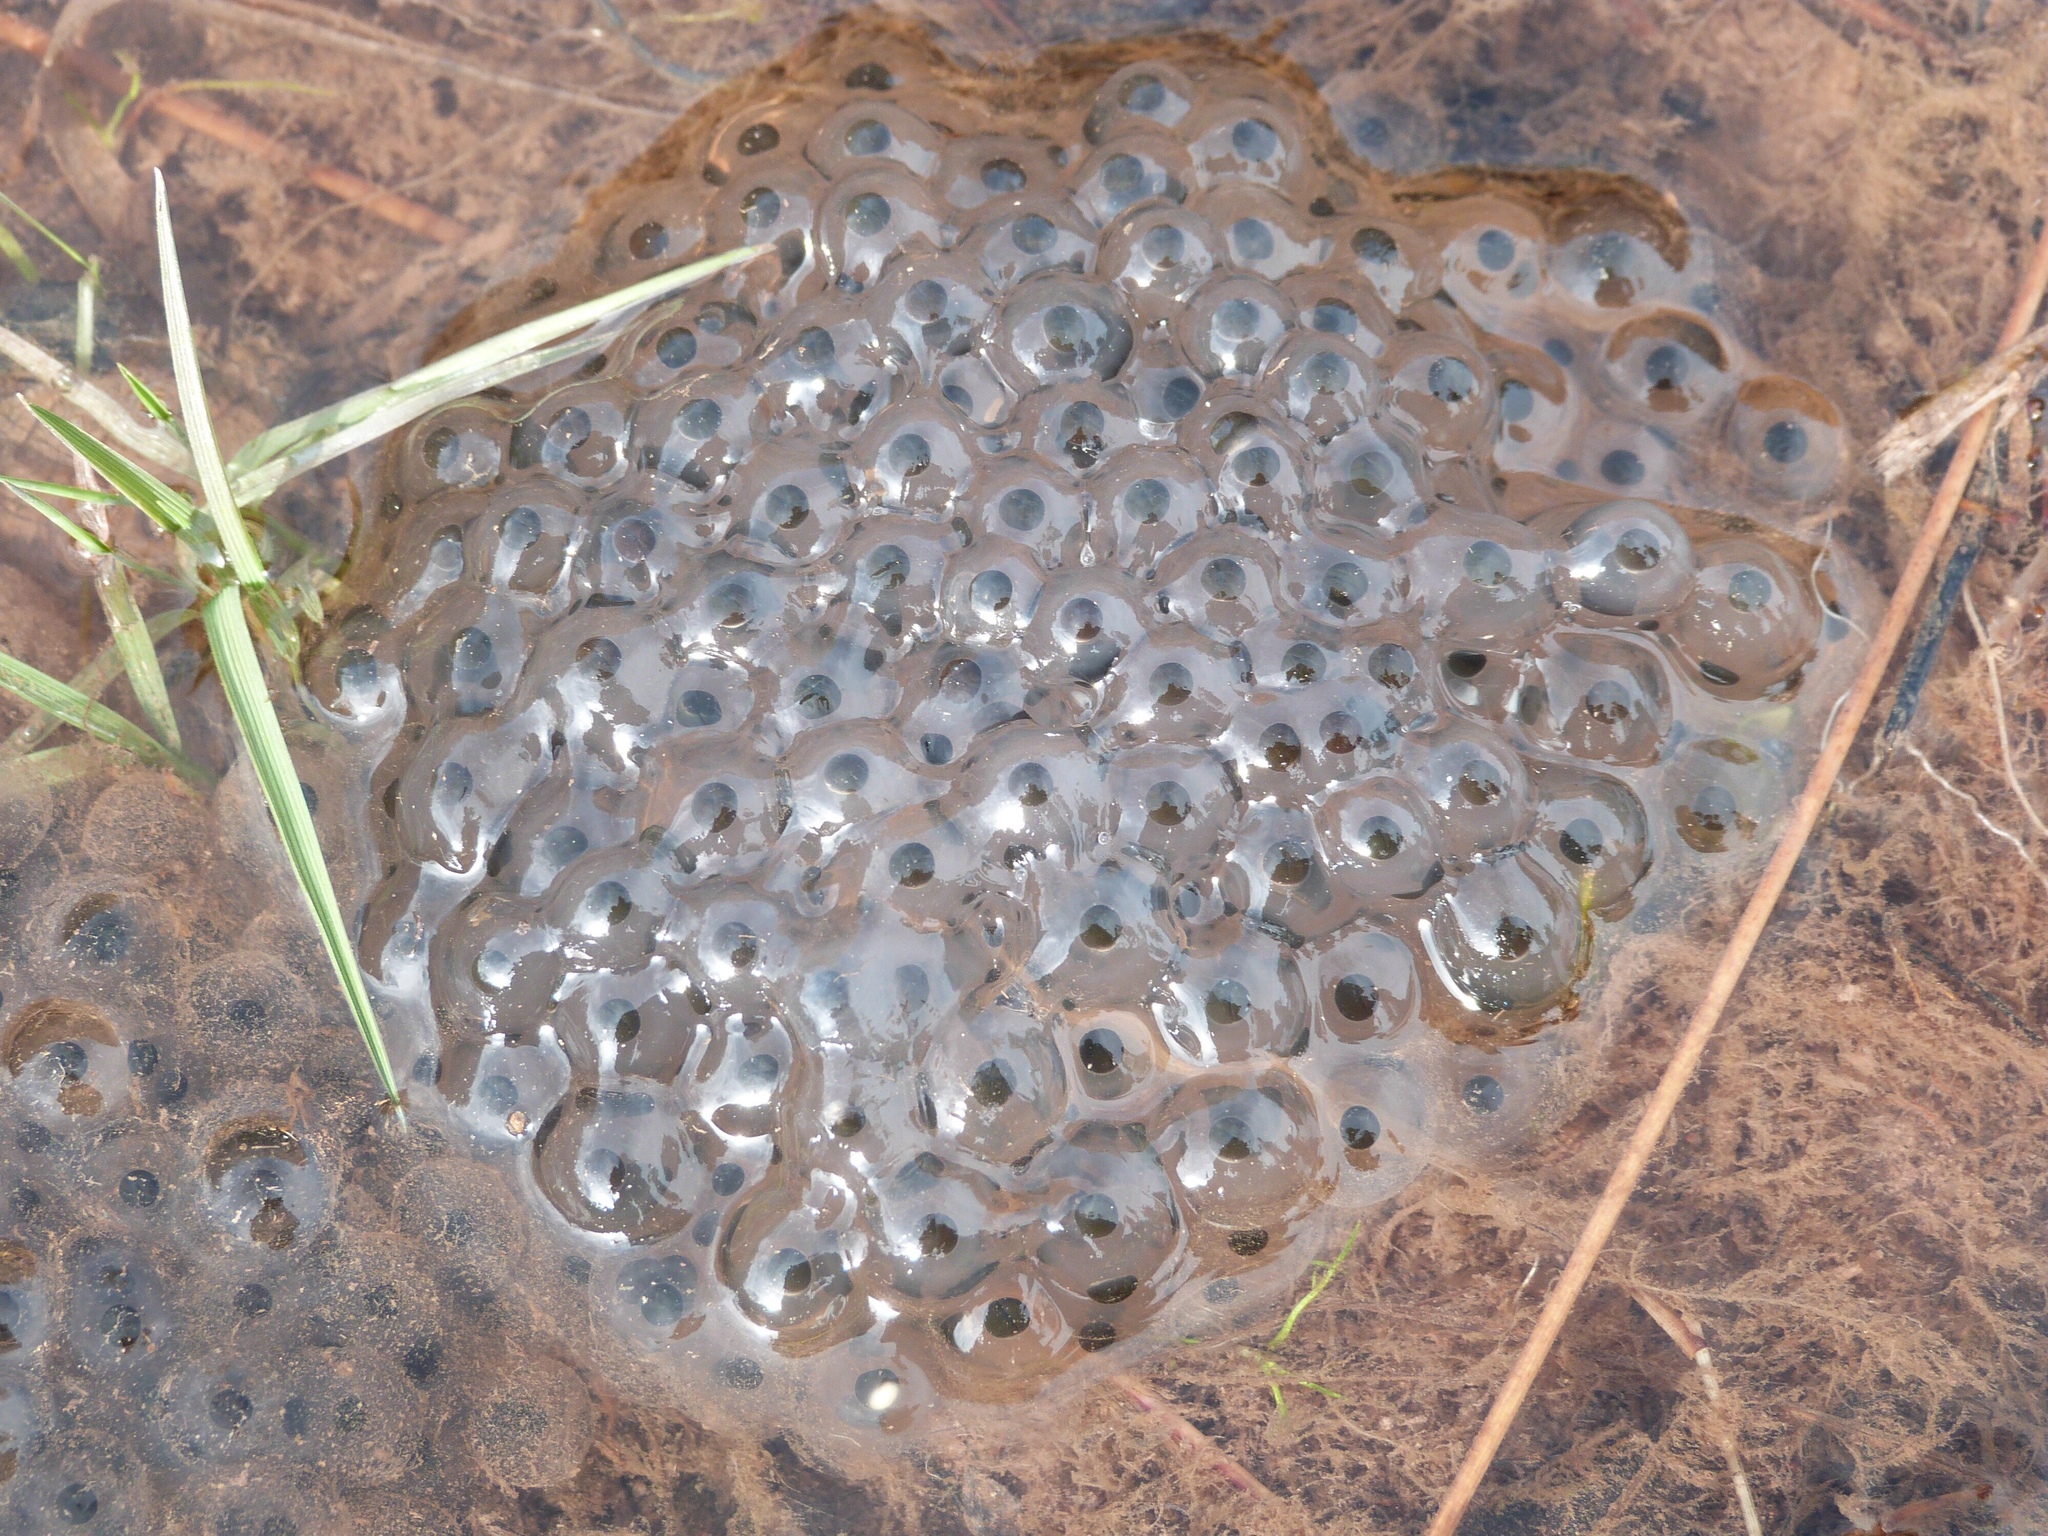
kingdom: Animalia
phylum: Chordata
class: Amphibia
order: Anura
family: Ranidae
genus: Rana
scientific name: Rana temporaria
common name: Common frog
